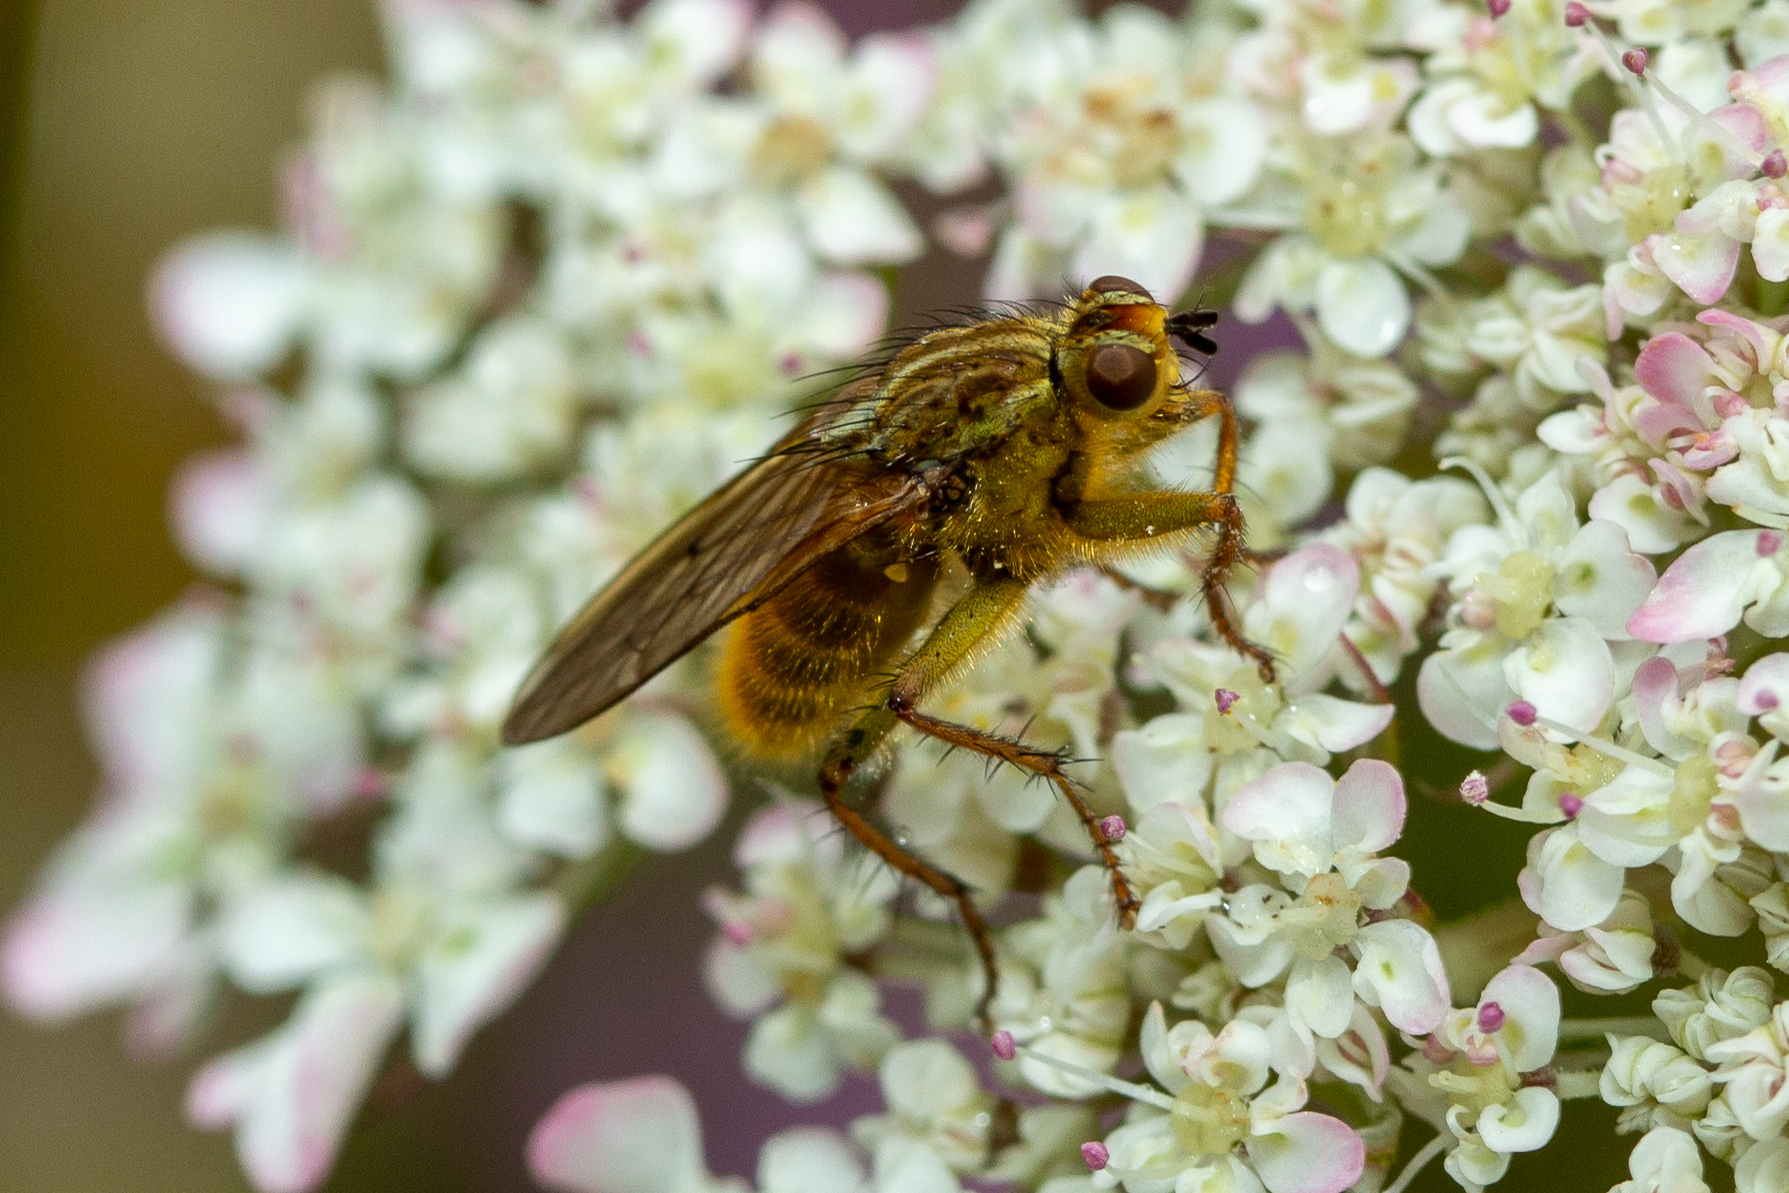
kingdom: Animalia
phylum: Arthropoda
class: Insecta
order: Diptera
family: Scathophagidae
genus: Scathophaga
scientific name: Scathophaga stercoraria
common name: Yellow dung fly
